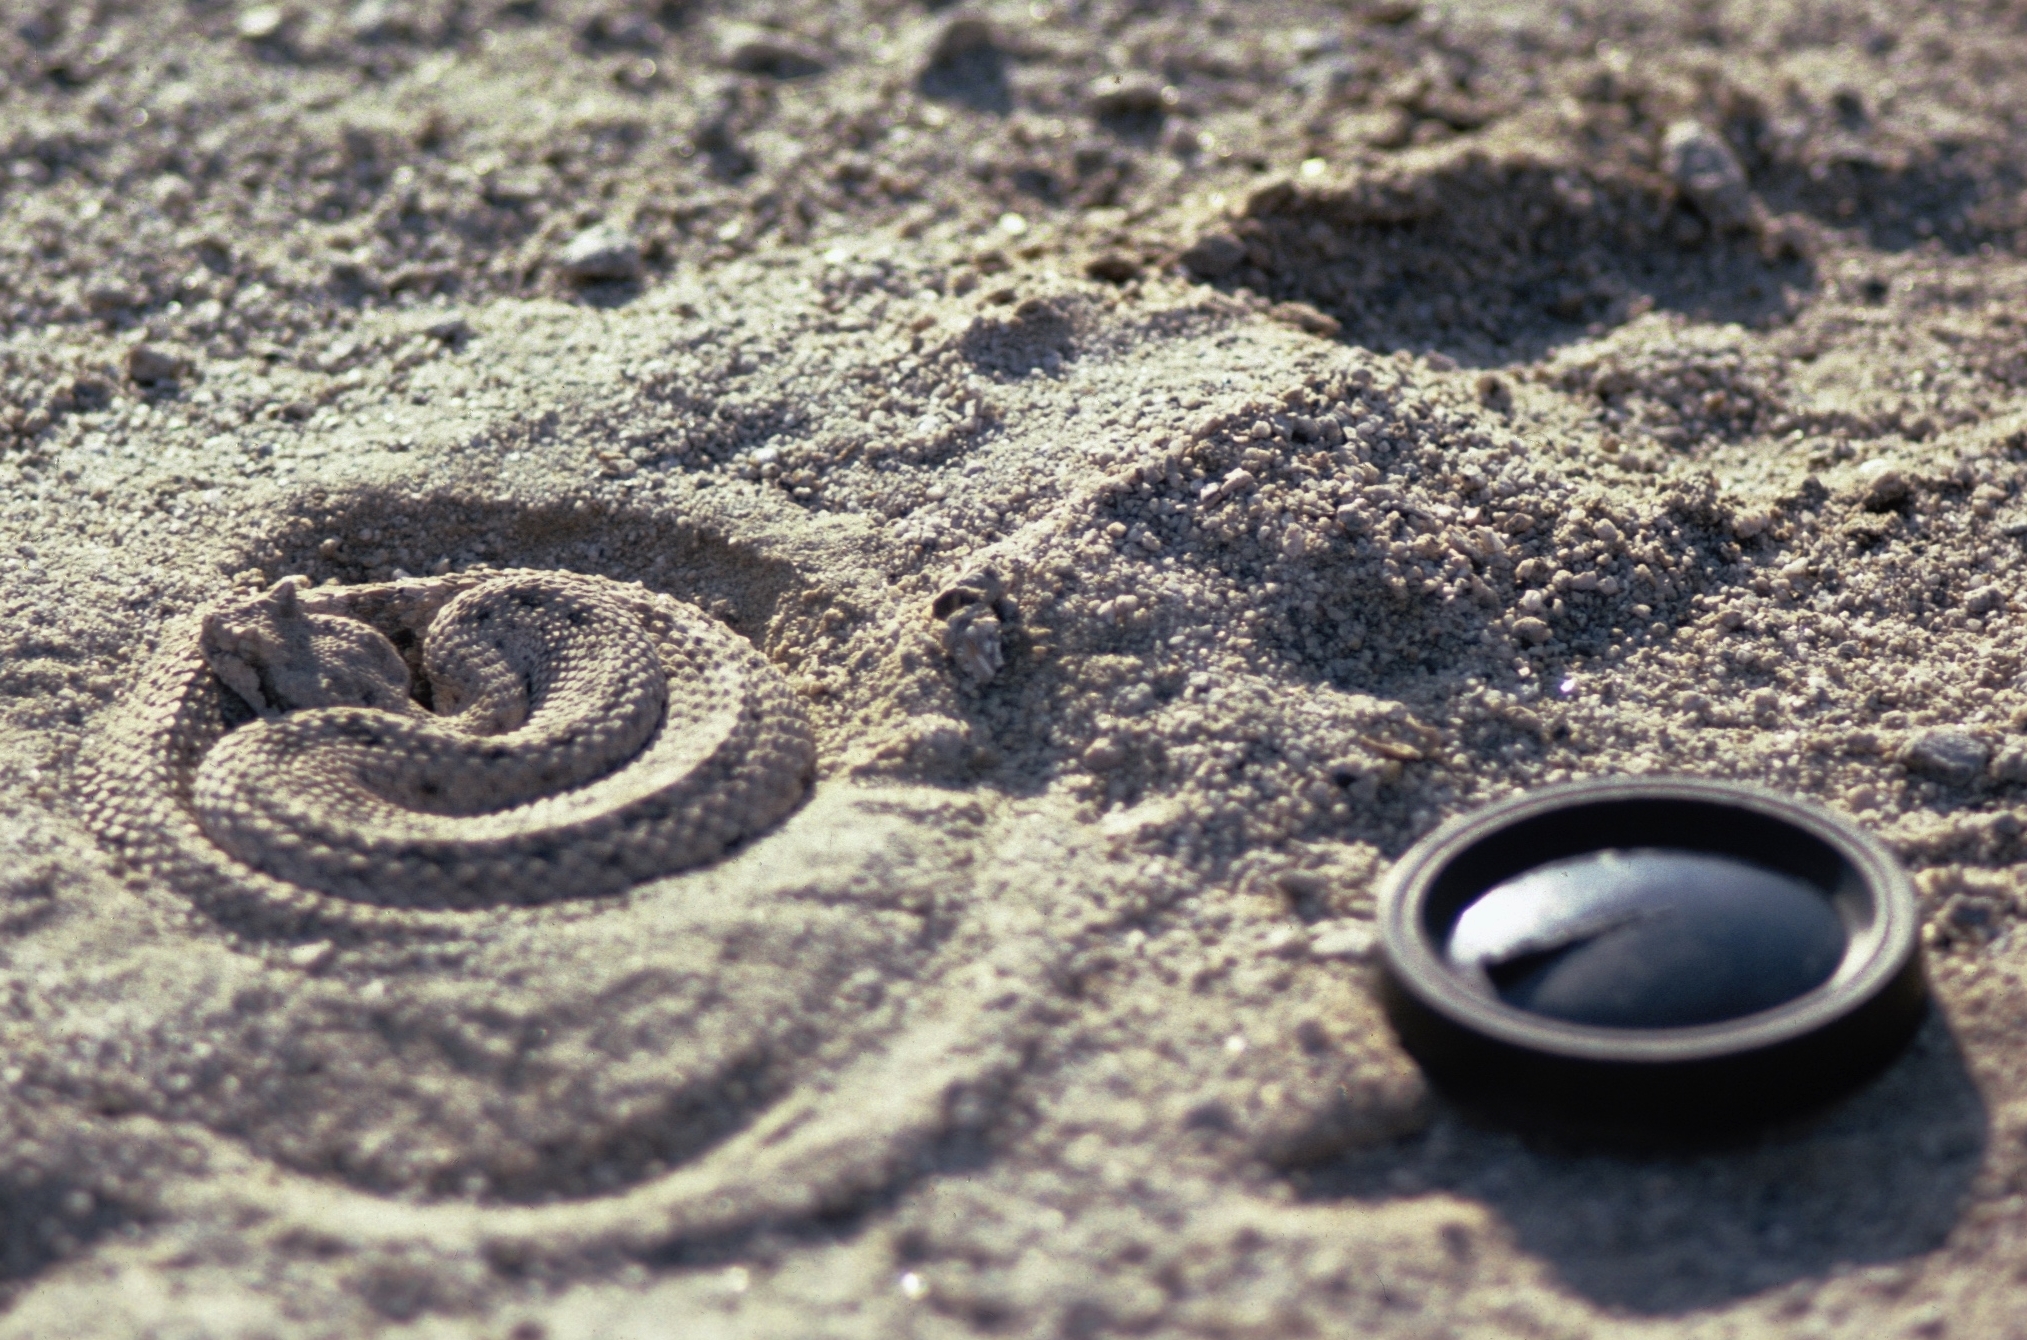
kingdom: Animalia
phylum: Chordata
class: Squamata
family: Viperidae
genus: Crotalus
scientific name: Crotalus cerastes
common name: Sidewinder
